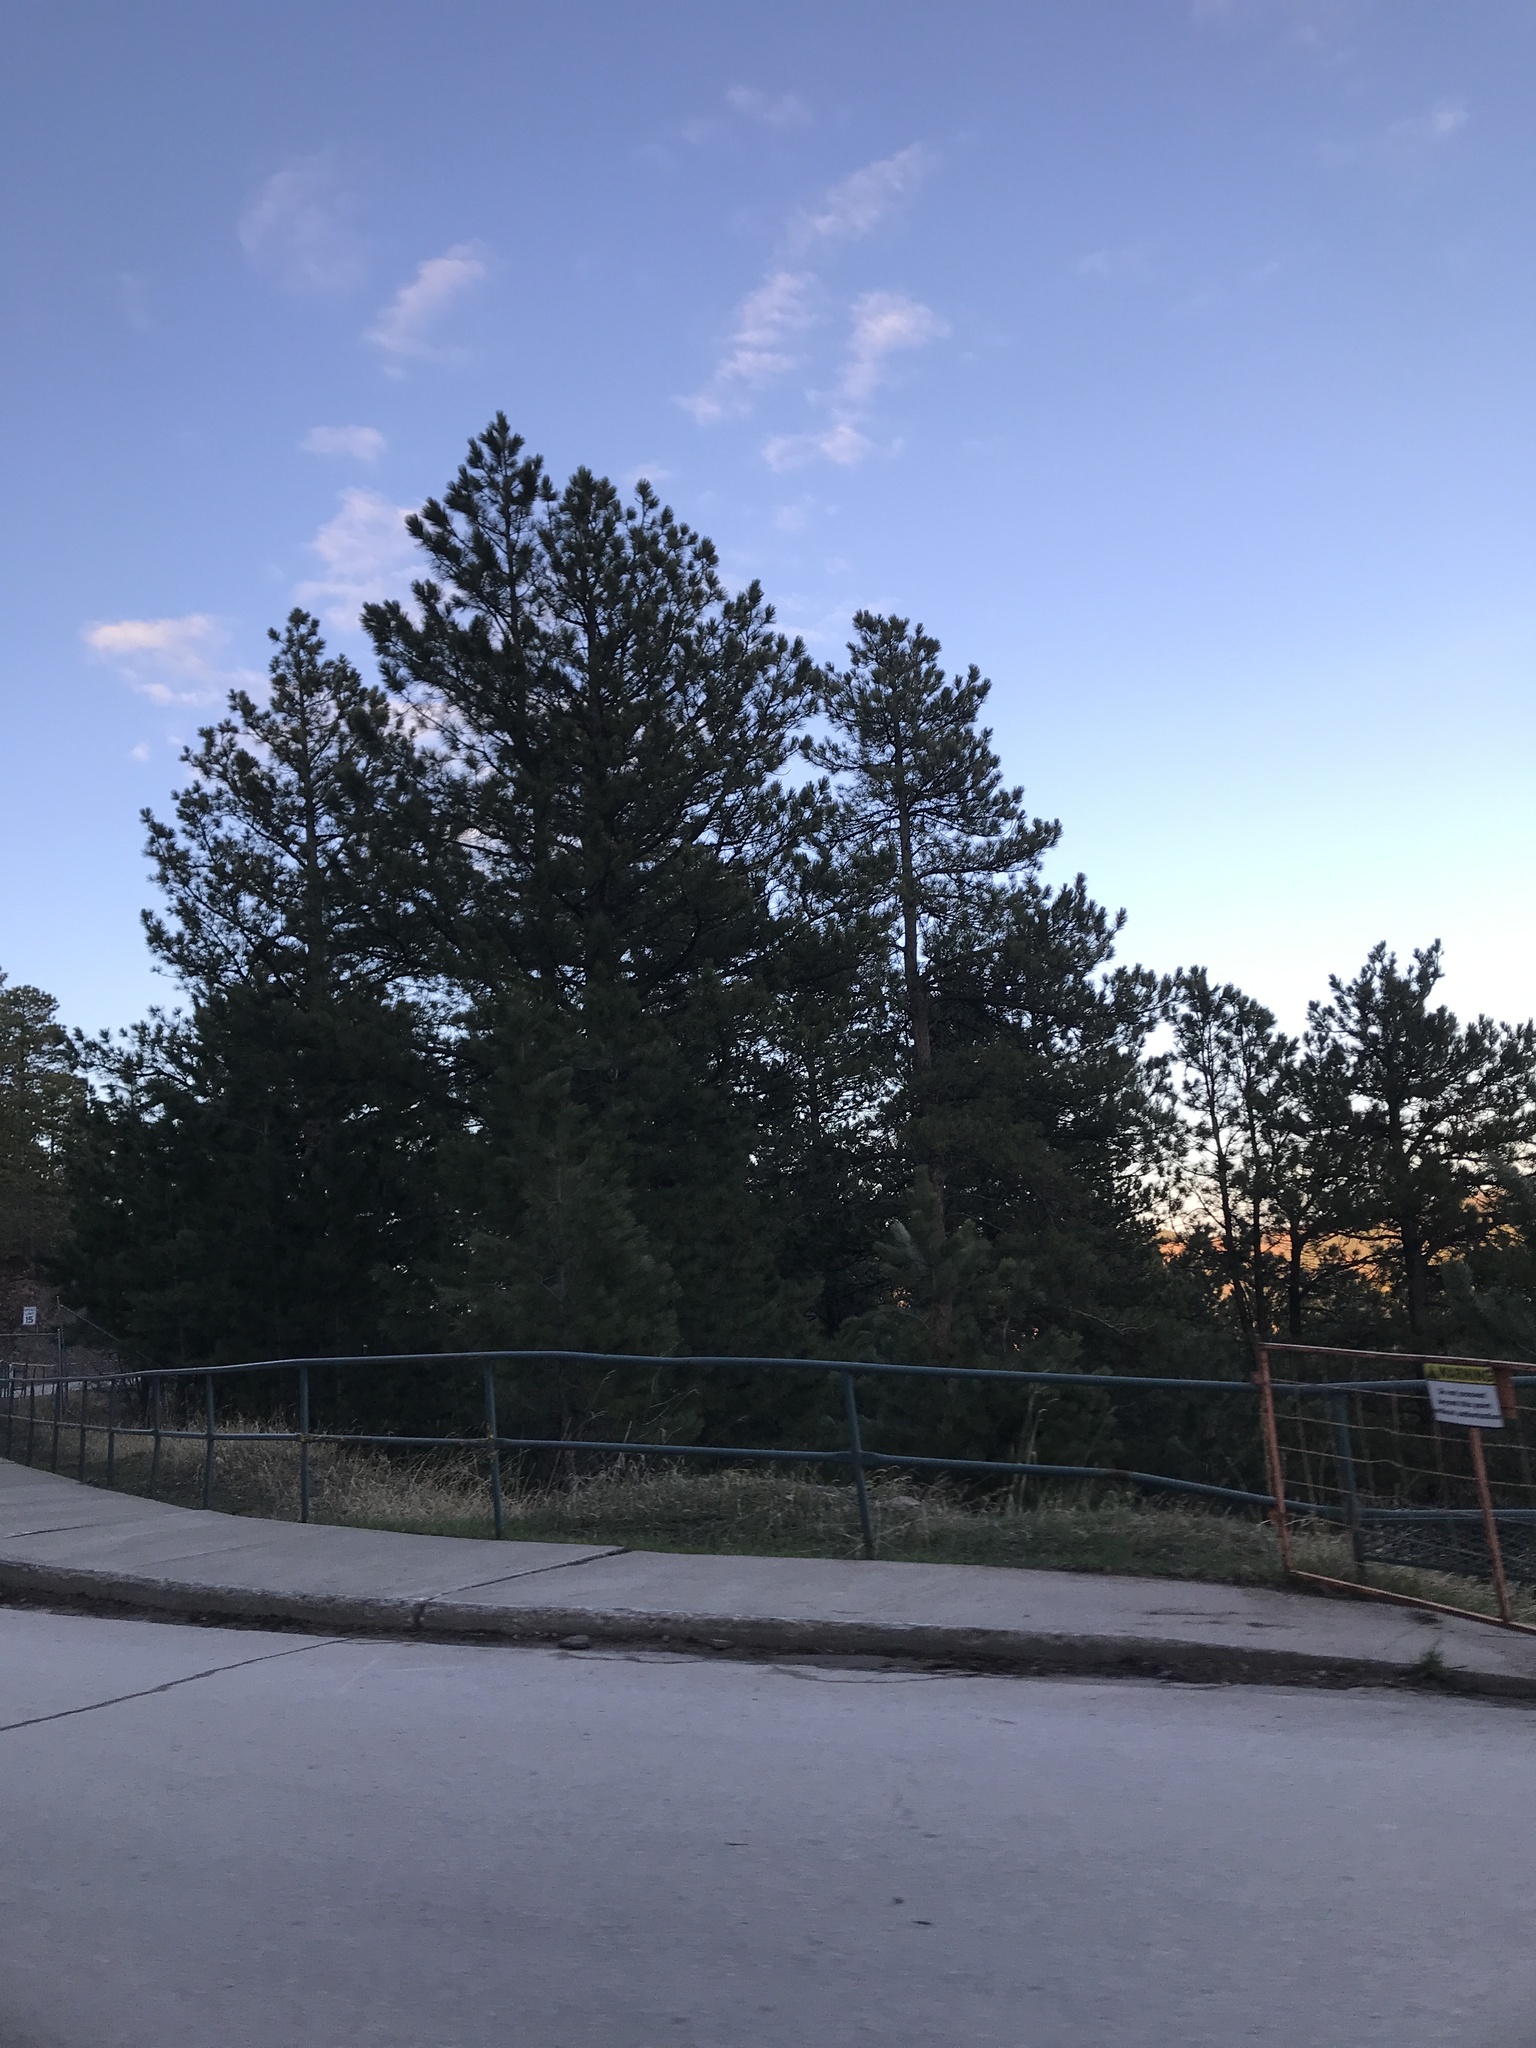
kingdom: Plantae
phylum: Tracheophyta
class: Pinopsida
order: Pinales
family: Pinaceae
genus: Pinus
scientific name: Pinus ponderosa
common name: Western yellow-pine
